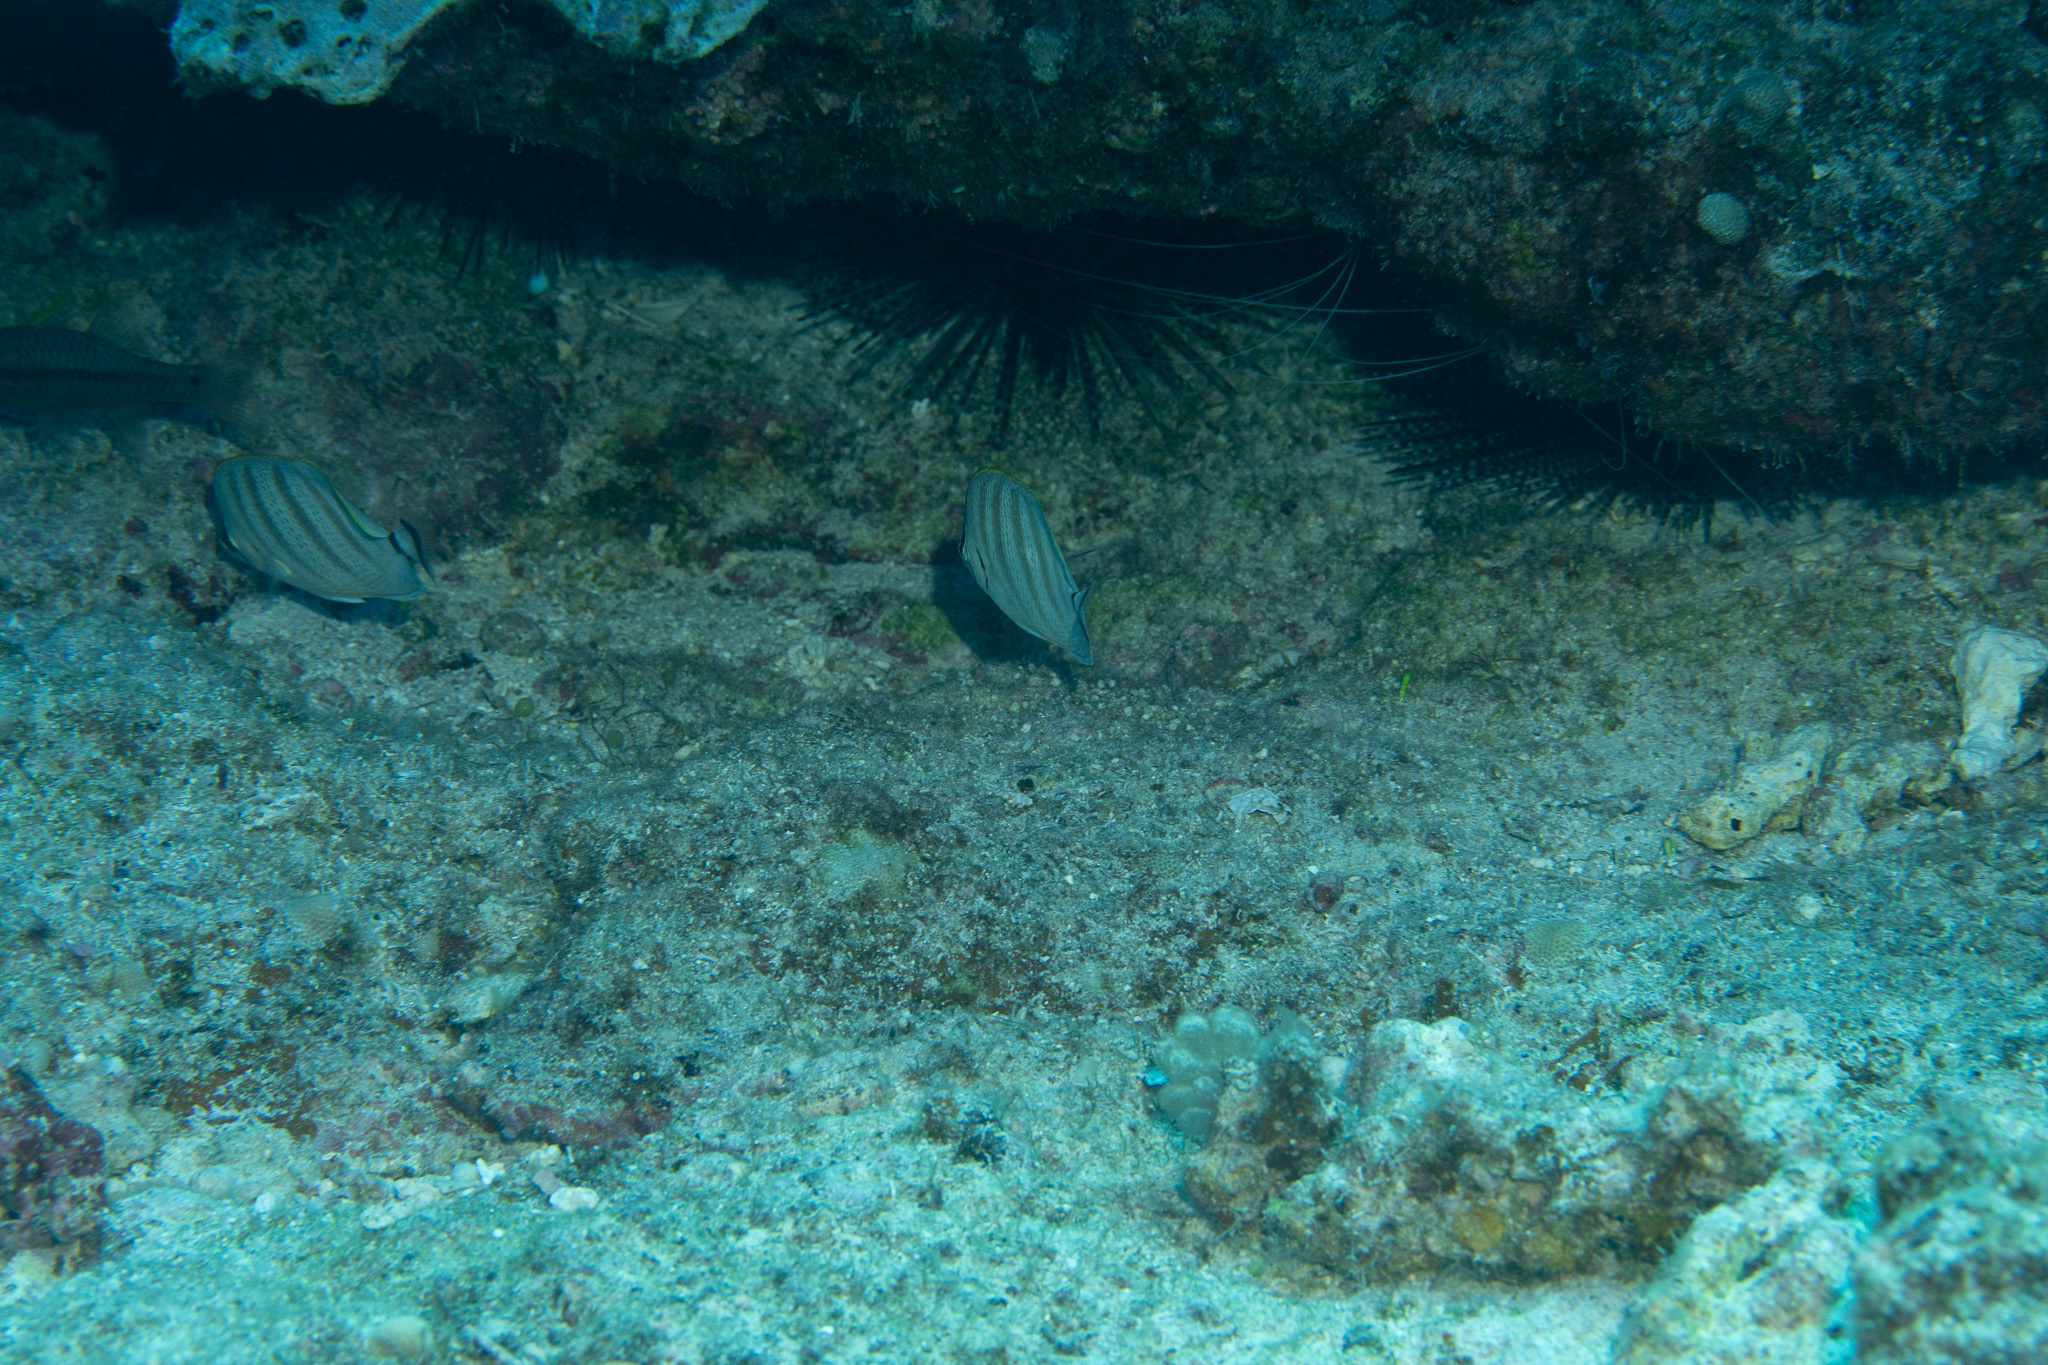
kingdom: Animalia
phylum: Chordata
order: Perciformes
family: Chaetodontidae
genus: Chaetodon
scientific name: Chaetodon multicinctus
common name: Multiband butterflyfish
